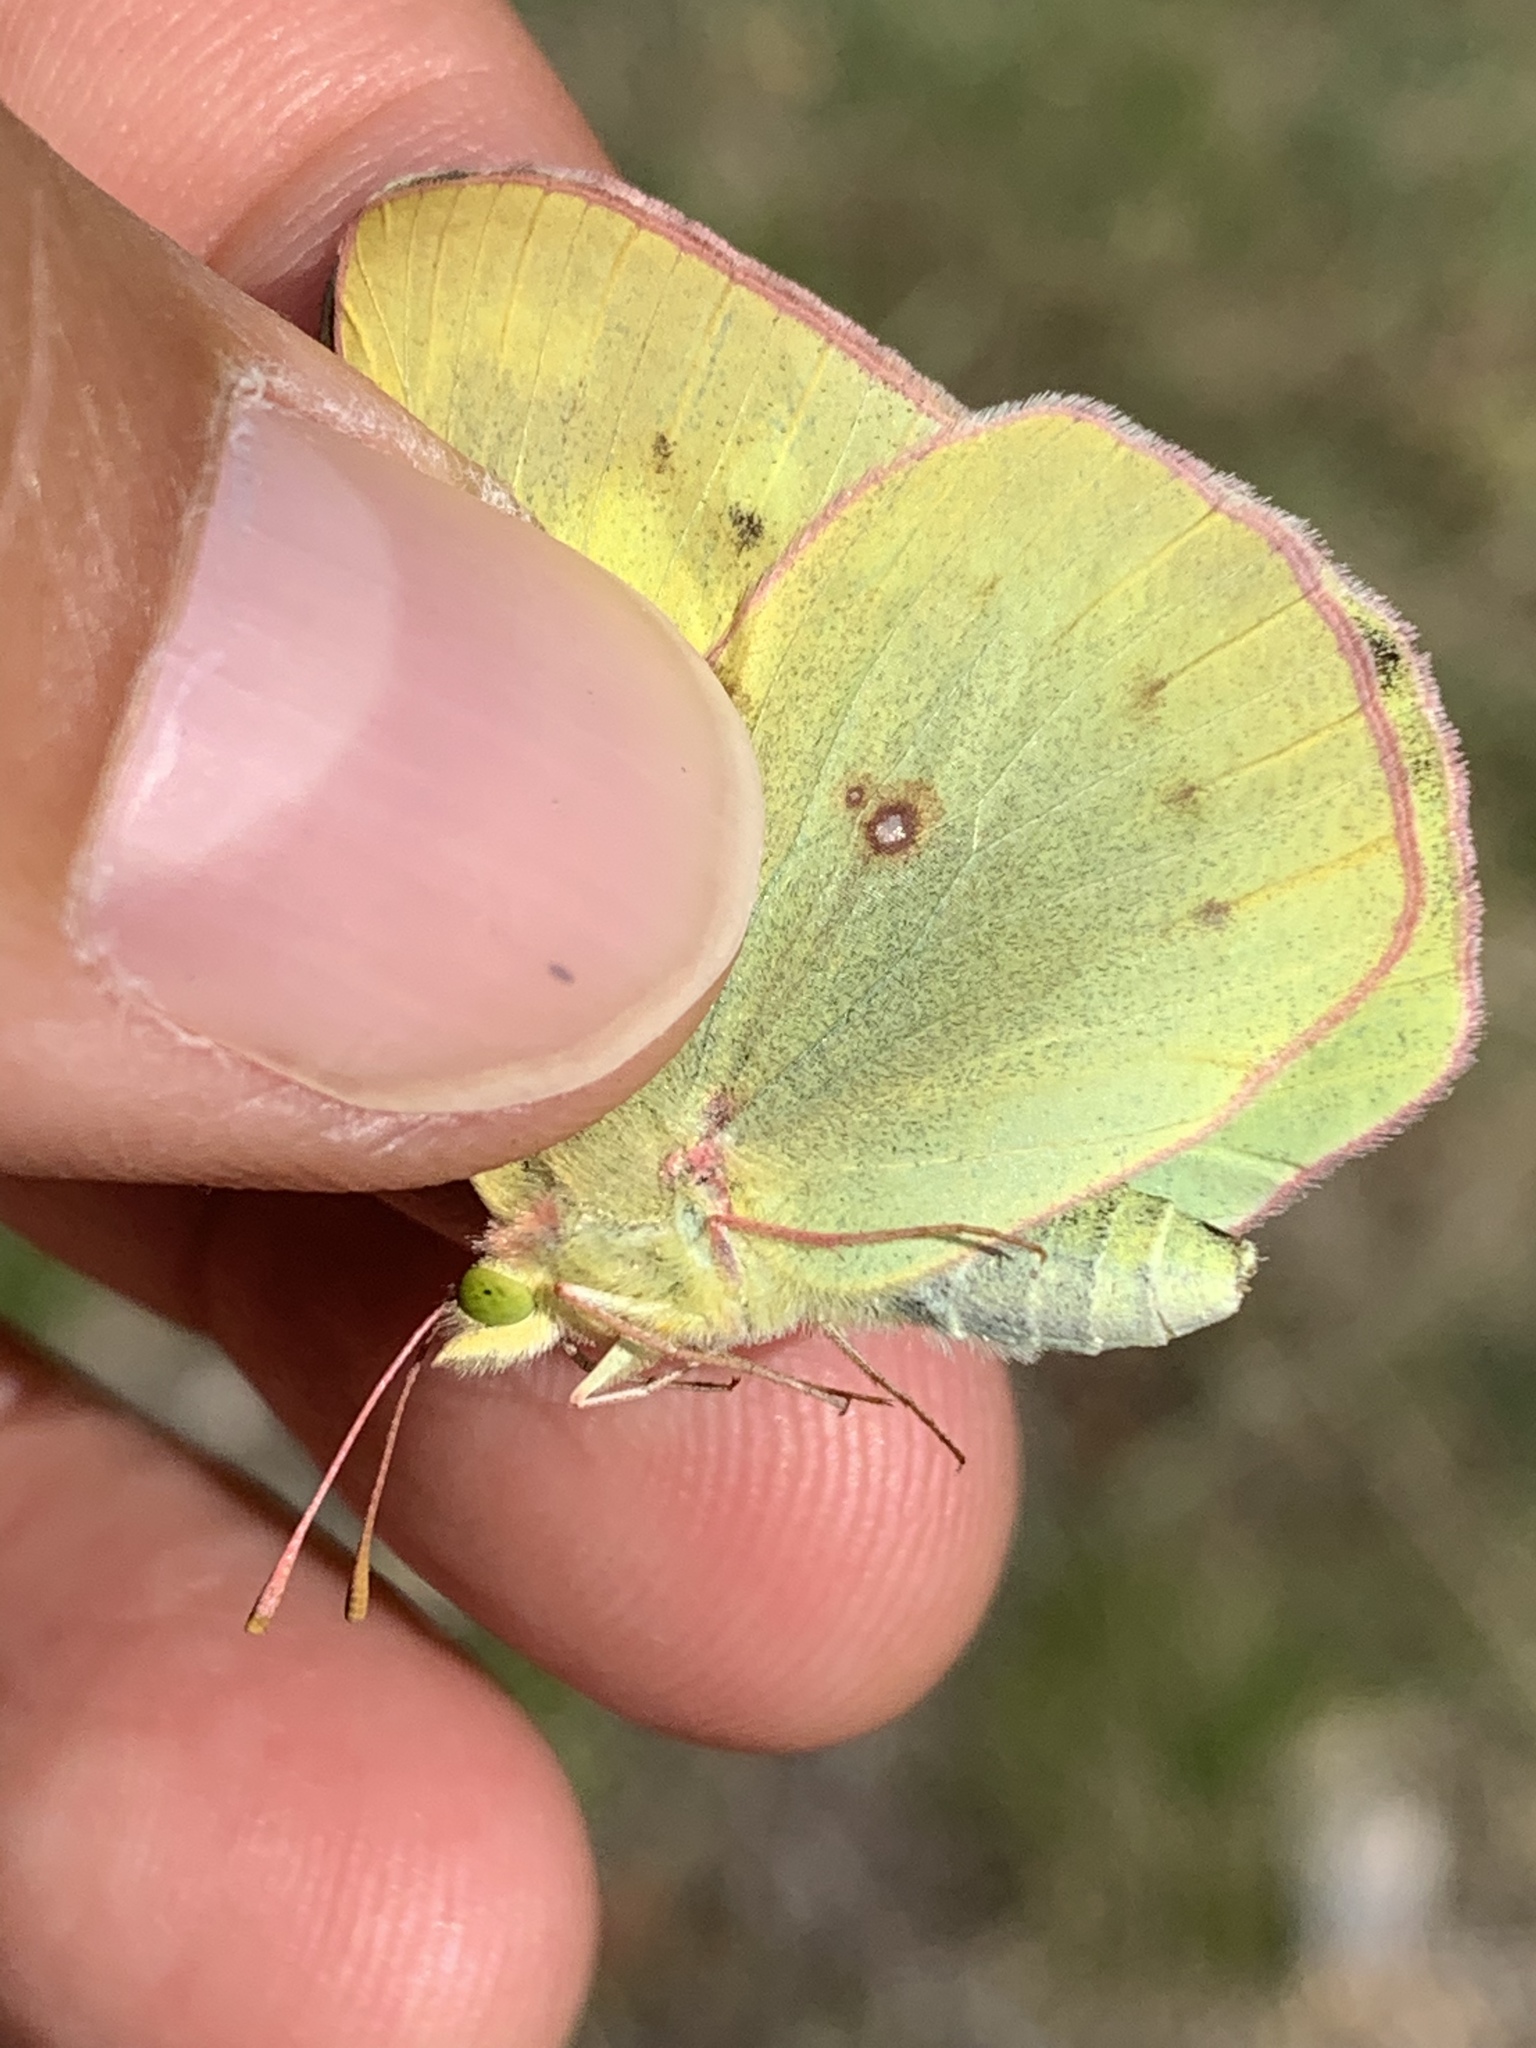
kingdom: Animalia
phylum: Arthropoda
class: Insecta
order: Lepidoptera
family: Pieridae
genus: Colias
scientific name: Colias philodice
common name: Clouded sulphur
